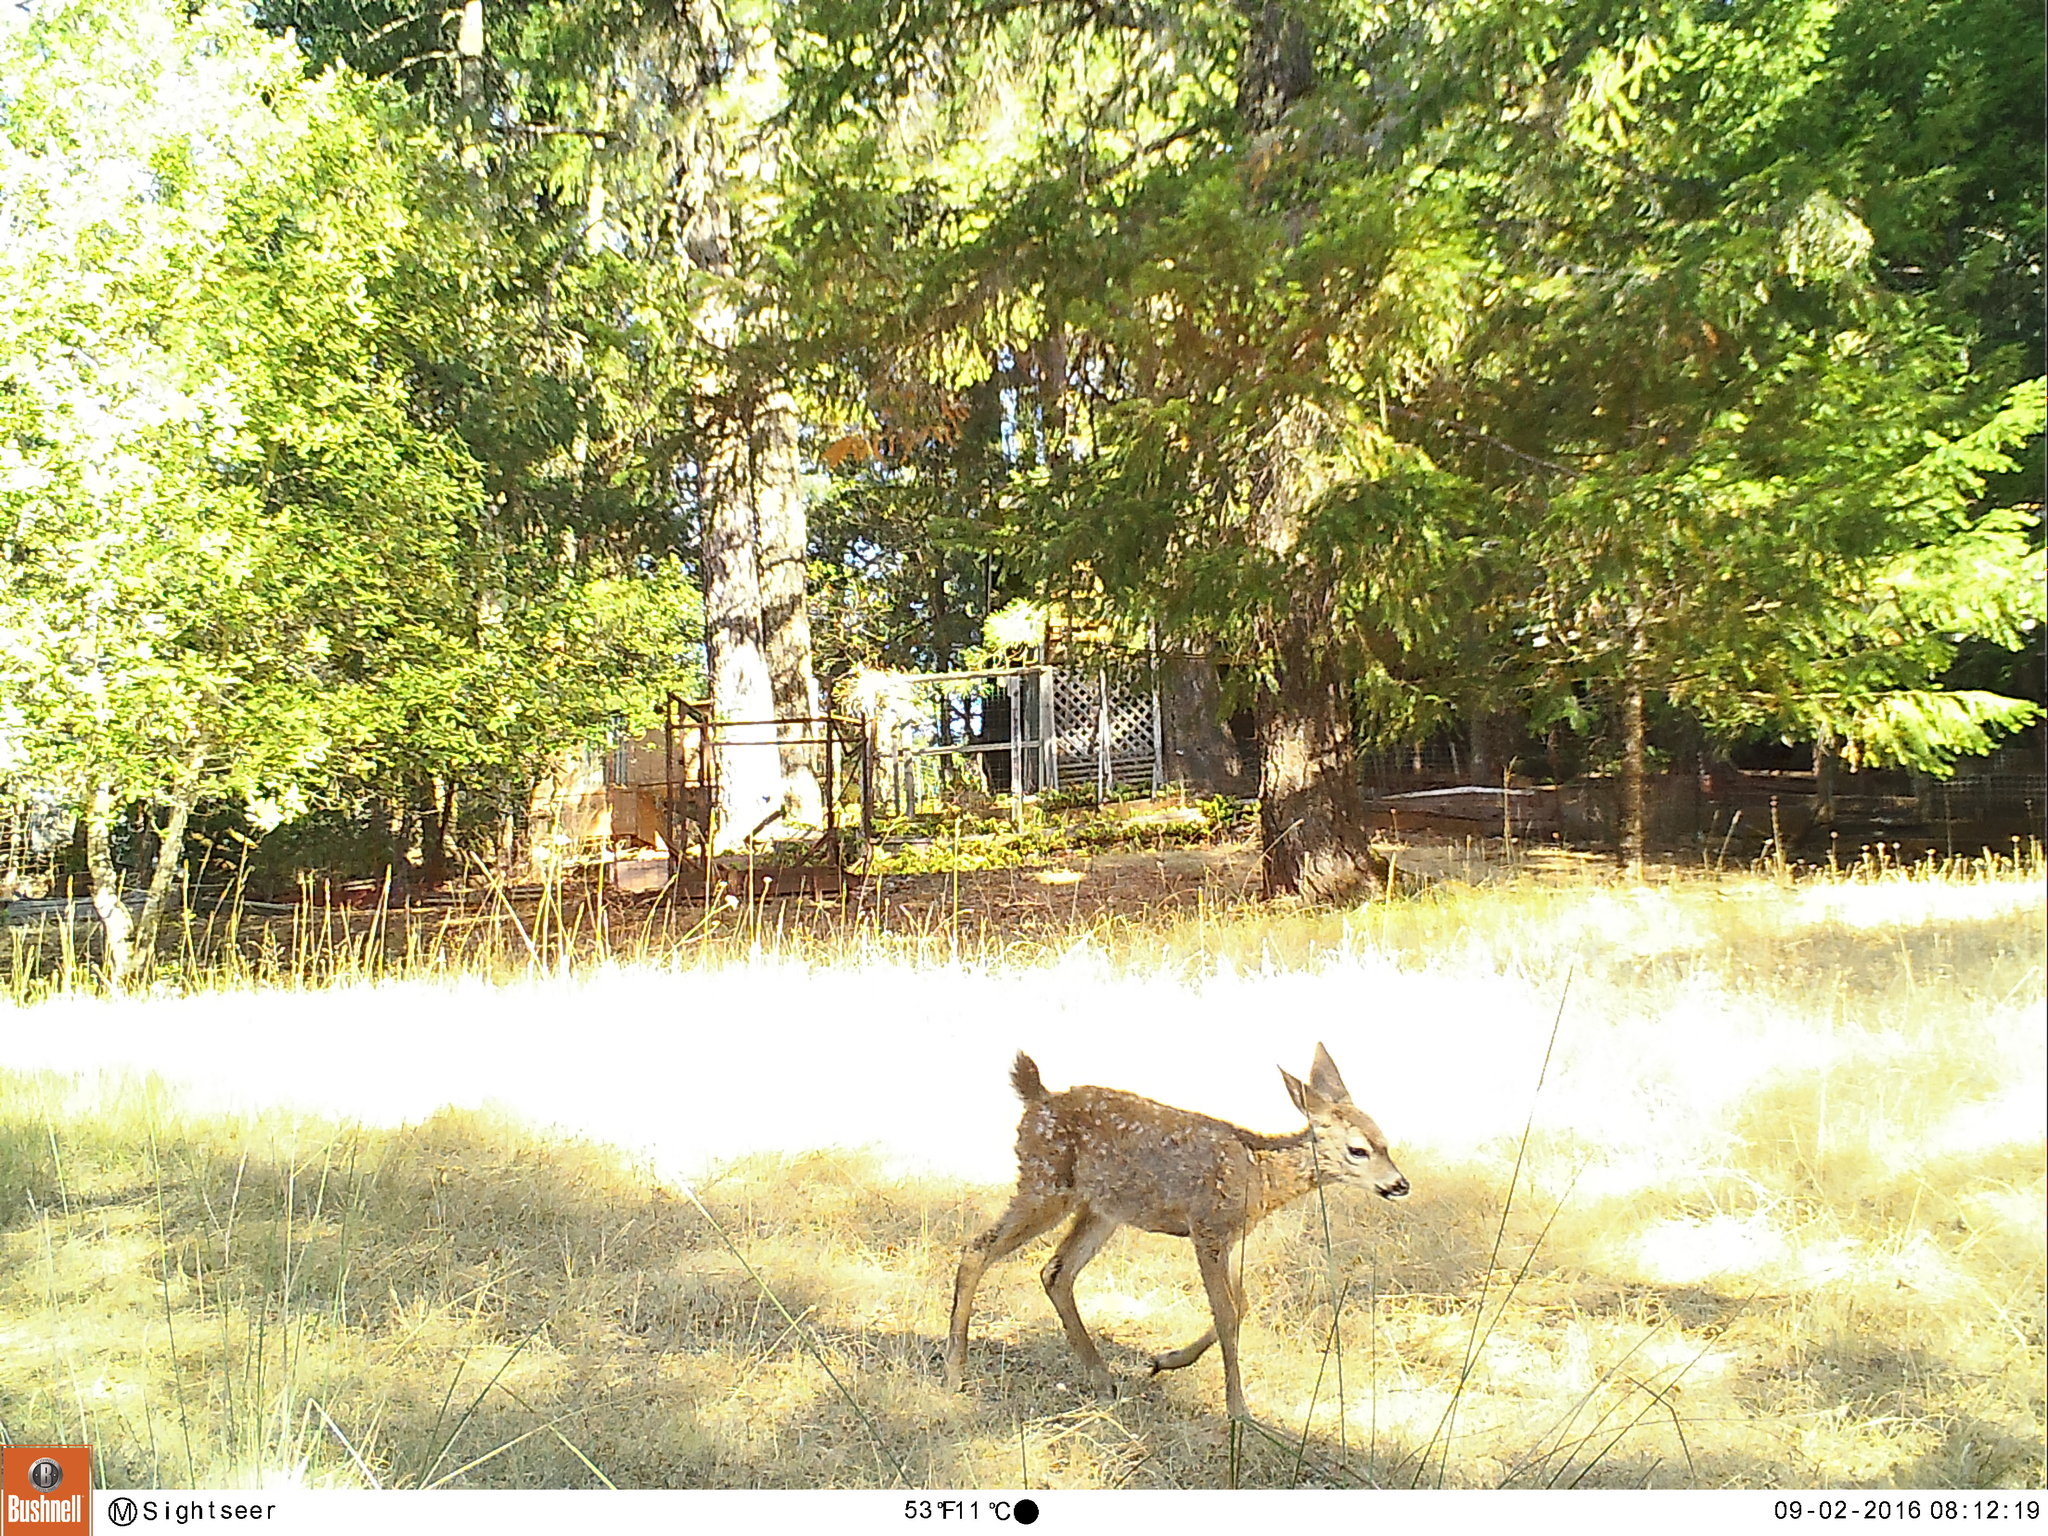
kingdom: Animalia
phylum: Chordata
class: Mammalia
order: Artiodactyla
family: Cervidae
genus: Odocoileus
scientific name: Odocoileus hemionus
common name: Mule deer
